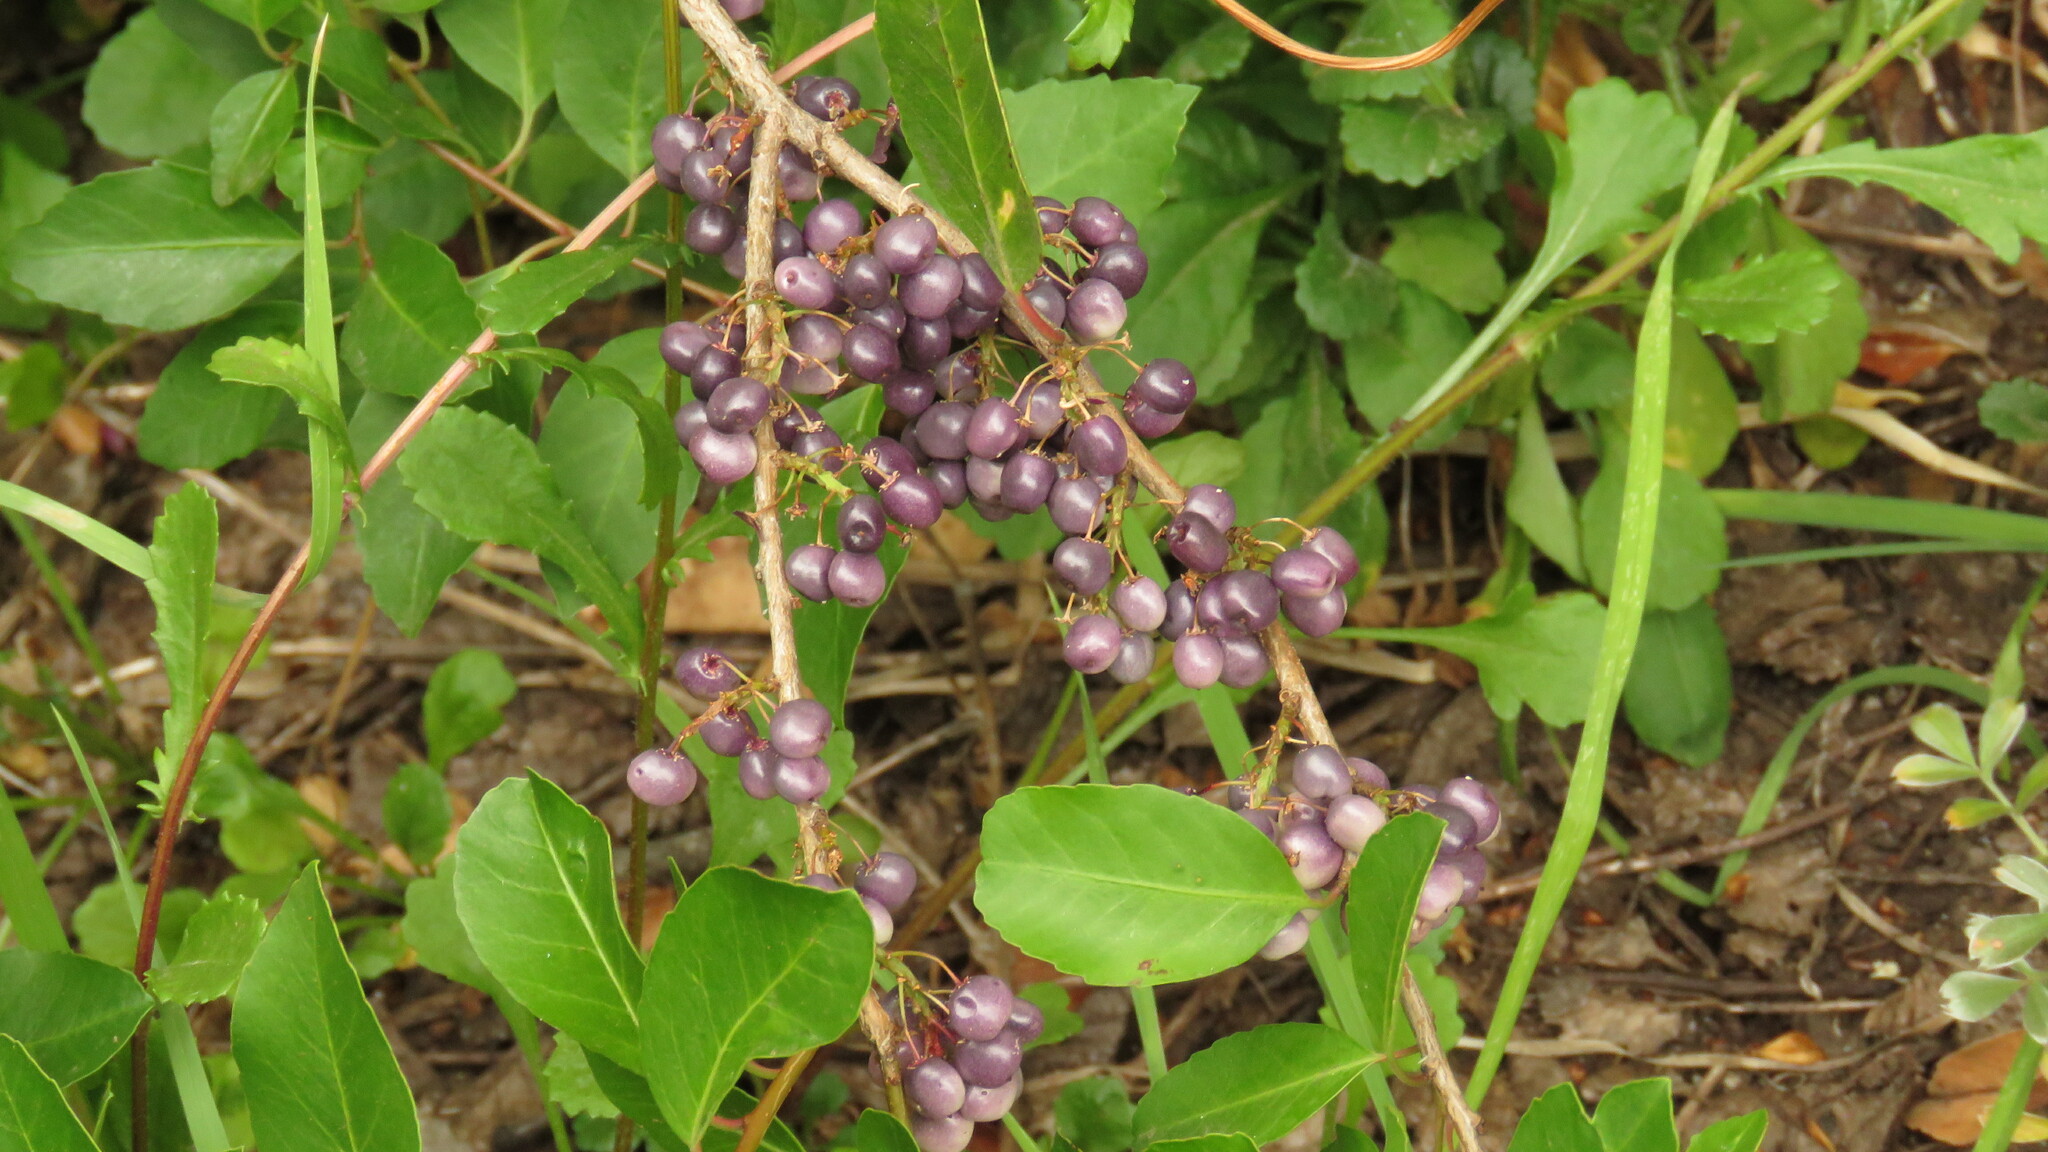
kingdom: Plantae
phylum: Tracheophyta
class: Magnoliopsida
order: Sapindales
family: Anacardiaceae
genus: Schinus
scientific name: Schinus patagonica
